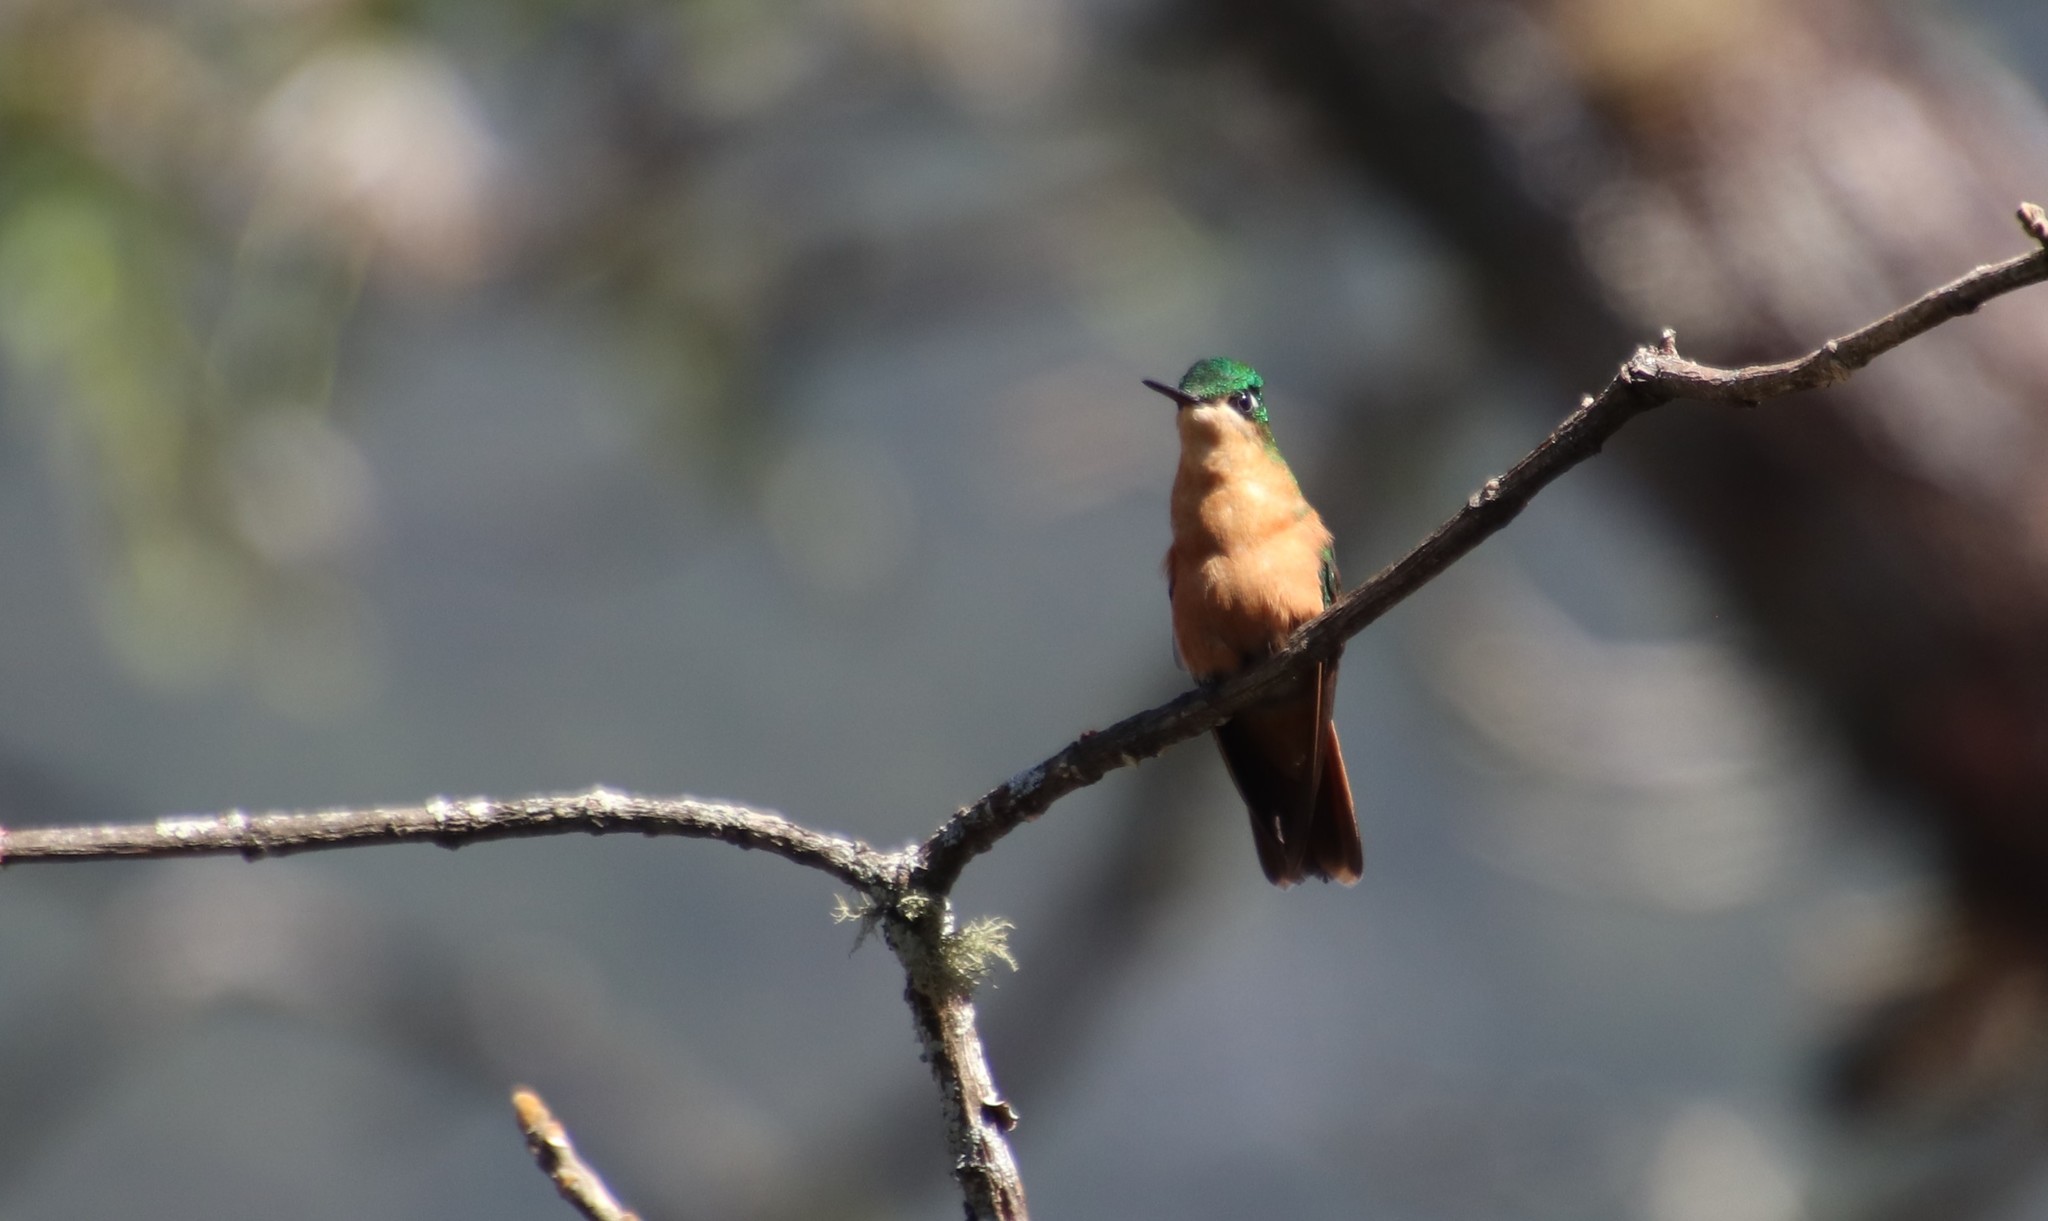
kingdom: Animalia
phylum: Chordata
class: Aves
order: Apodiformes
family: Trochilidae
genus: Clytolaema
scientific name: Clytolaema rubricauda
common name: Brazilian ruby
